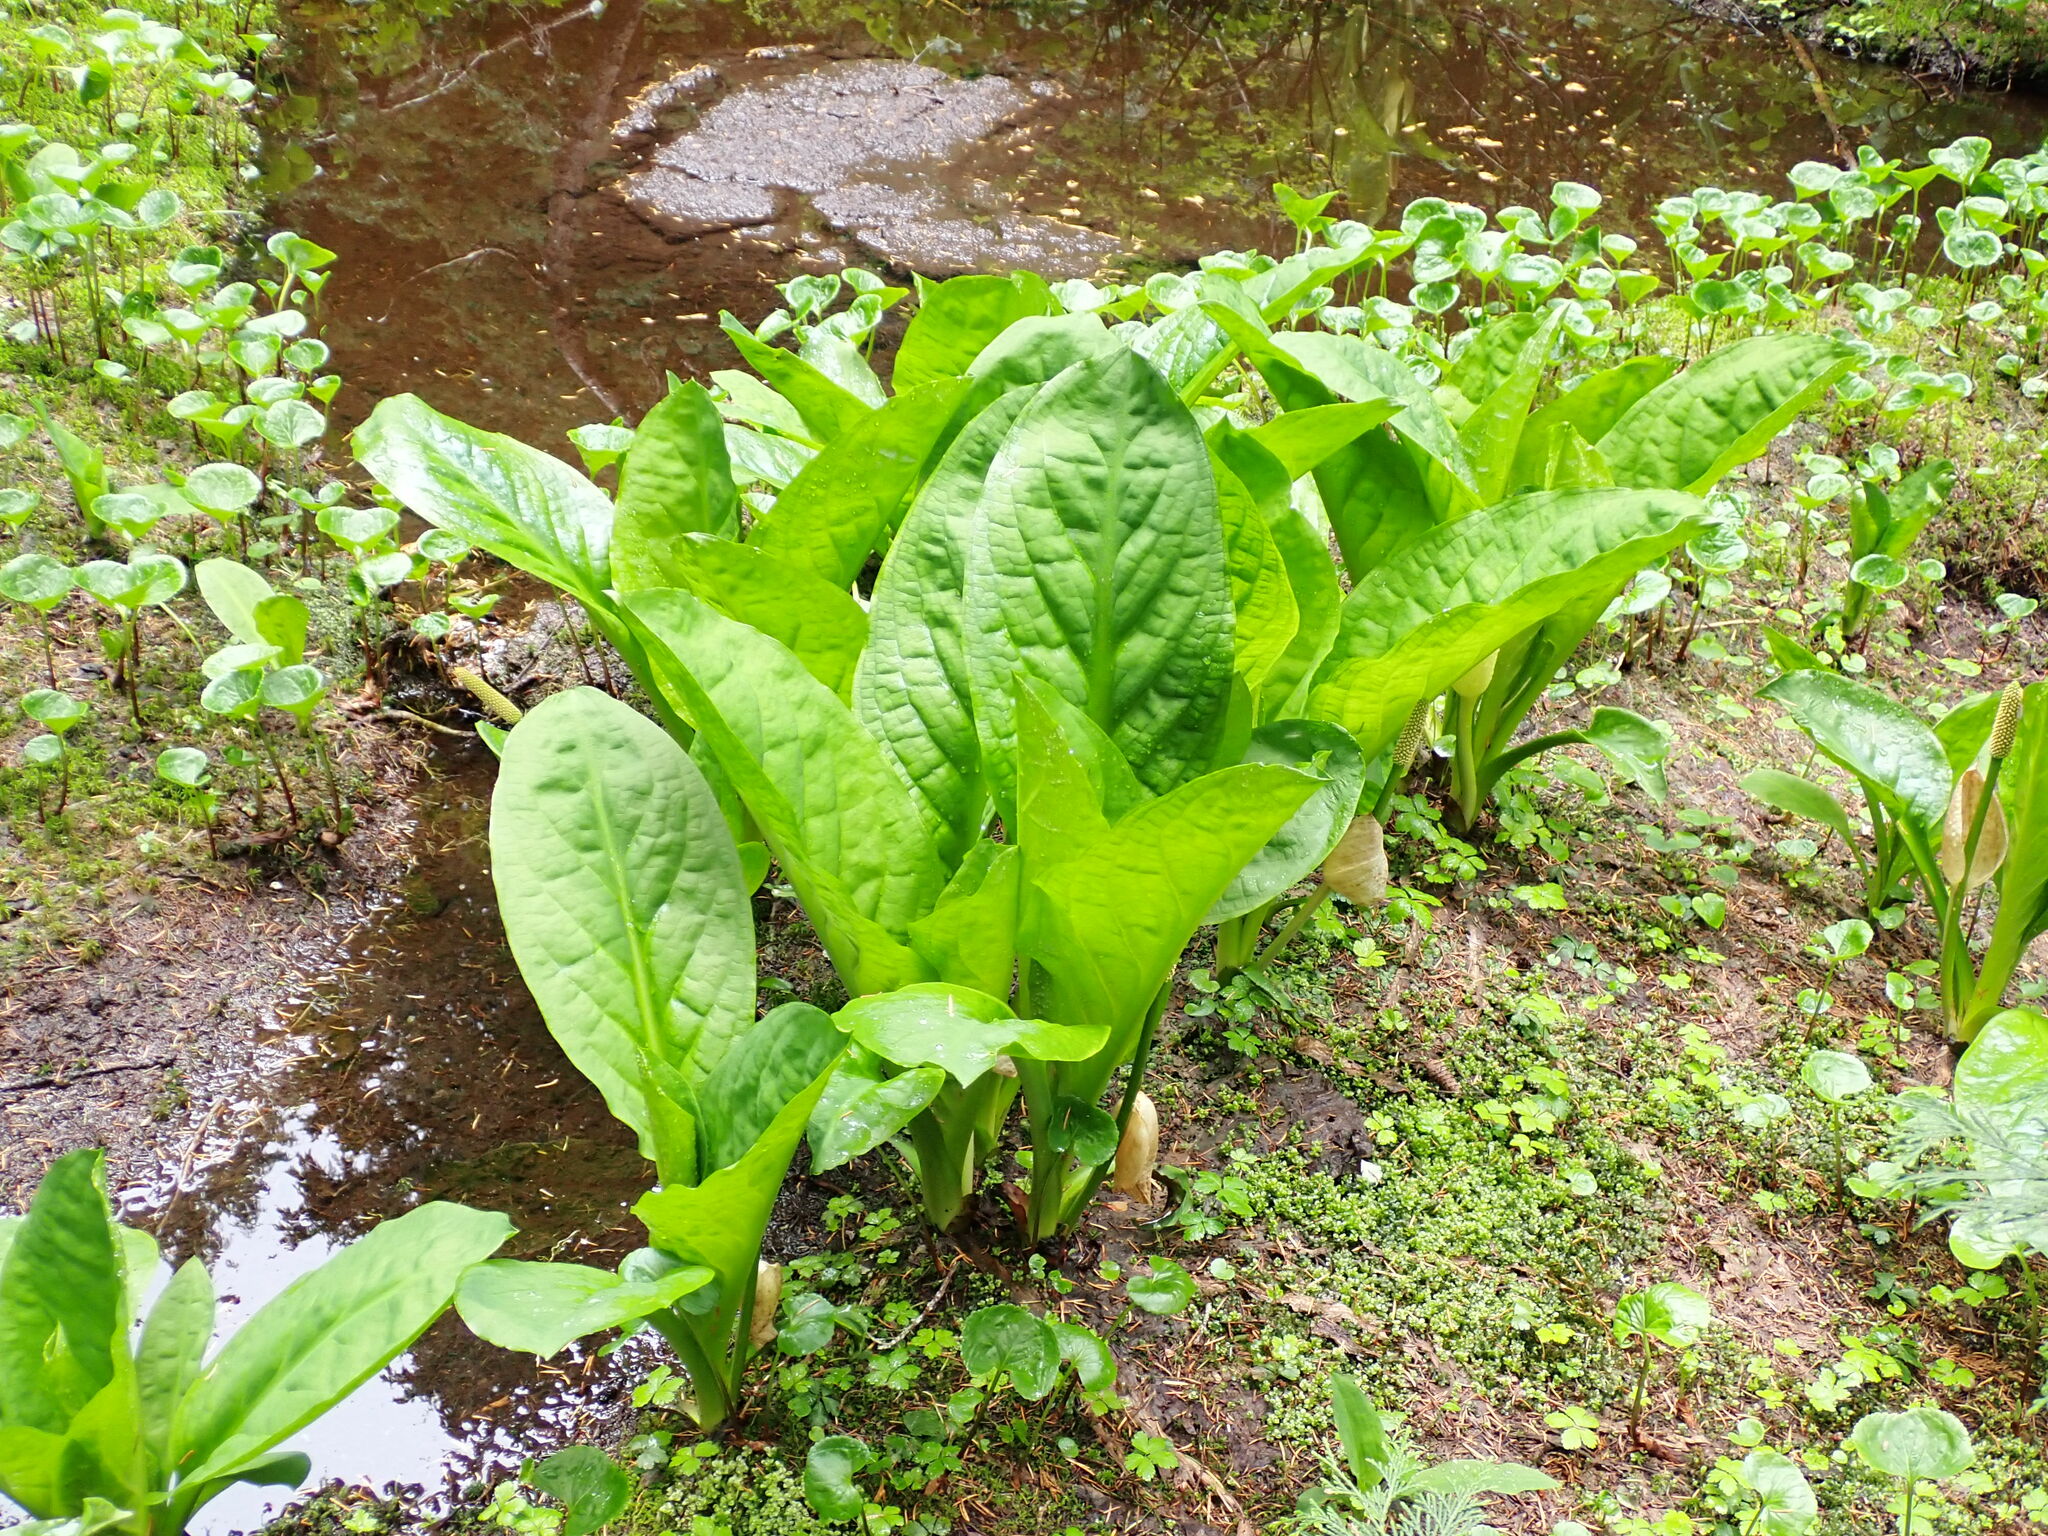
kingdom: Plantae
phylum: Tracheophyta
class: Liliopsida
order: Alismatales
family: Araceae
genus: Lysichiton
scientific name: Lysichiton americanus
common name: American skunk cabbage
